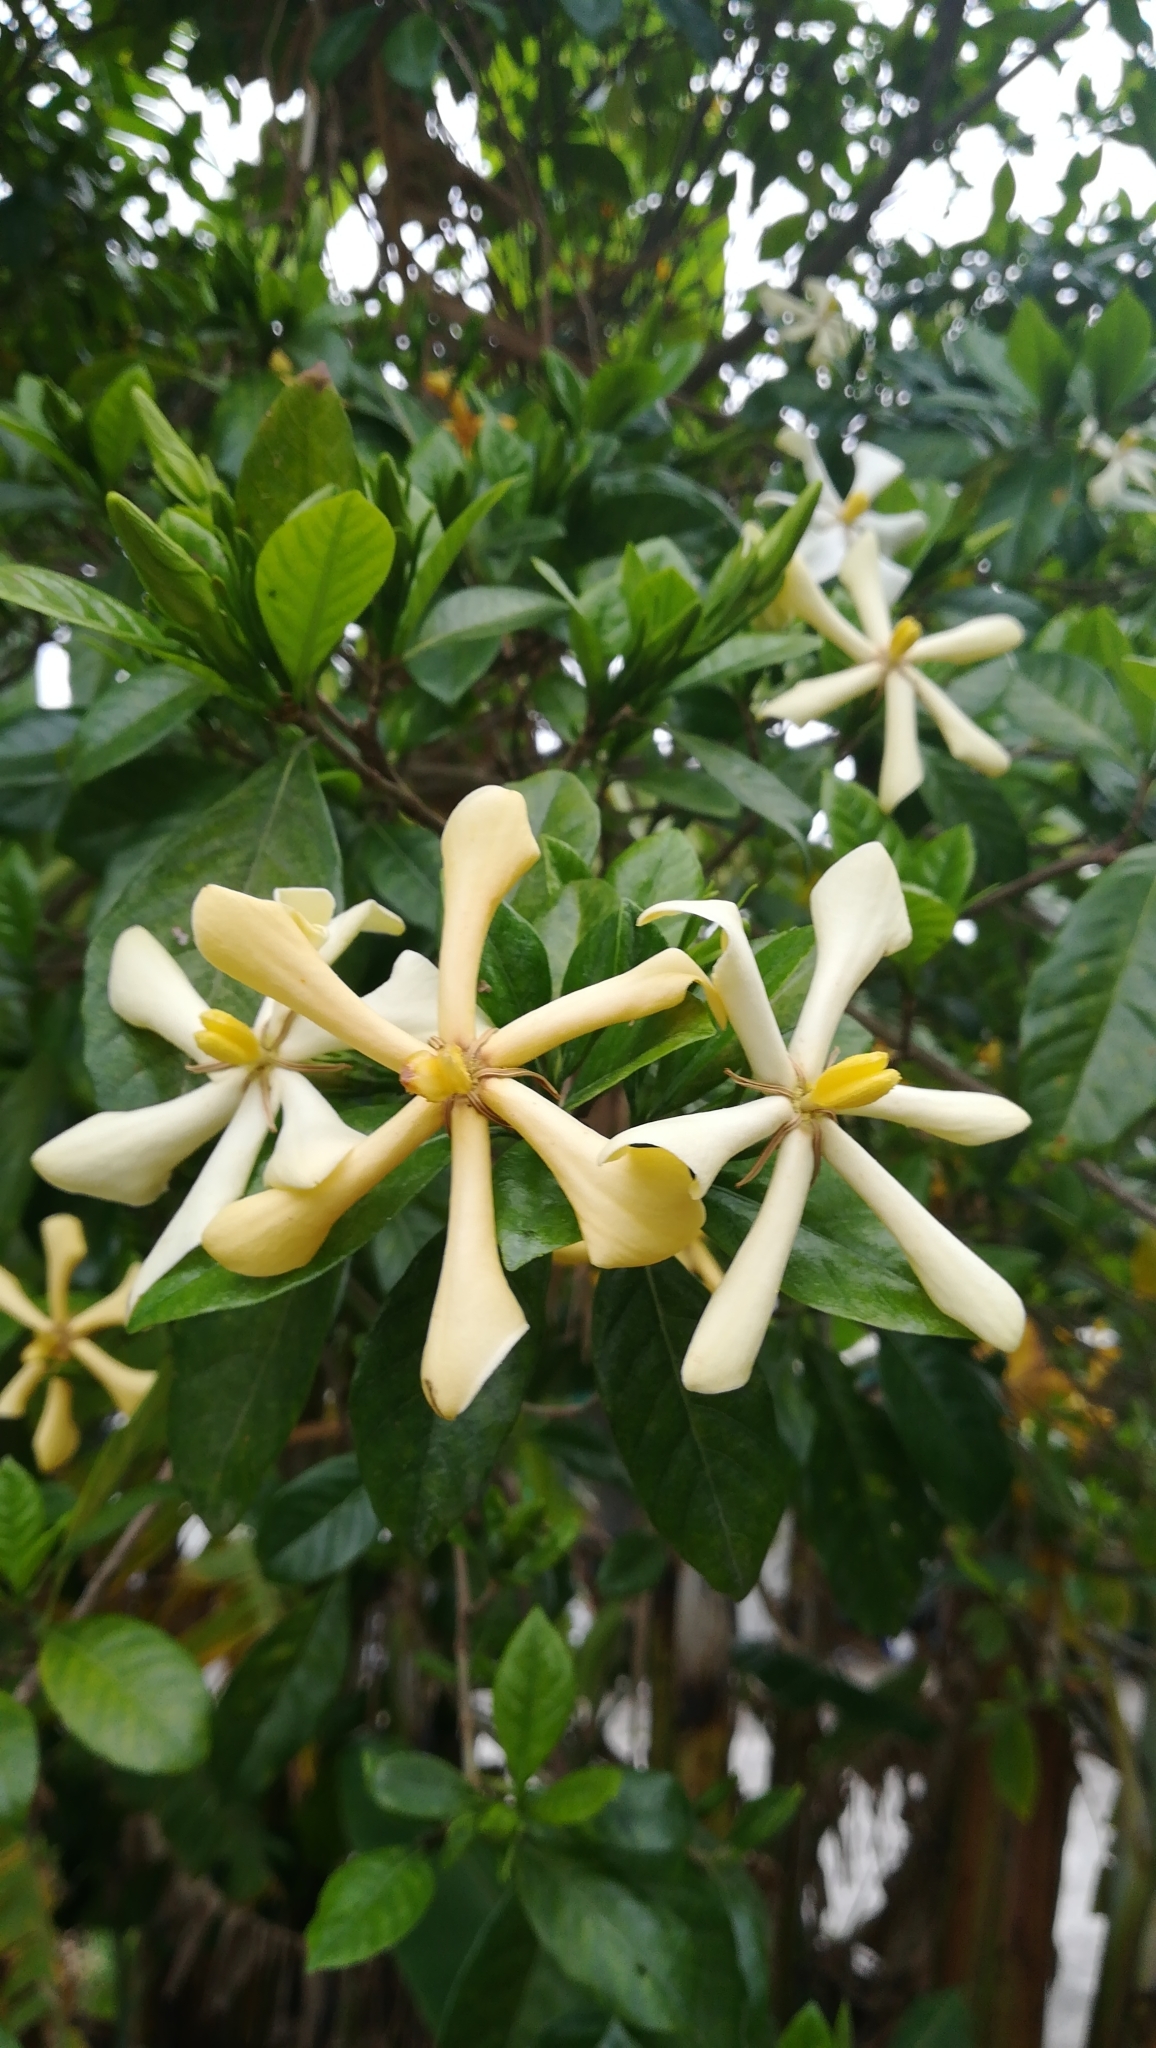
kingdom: Plantae
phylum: Tracheophyta
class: Magnoliopsida
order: Gentianales
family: Rubiaceae
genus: Gardenia
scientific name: Gardenia jasminoides
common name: Cape-jasmine
